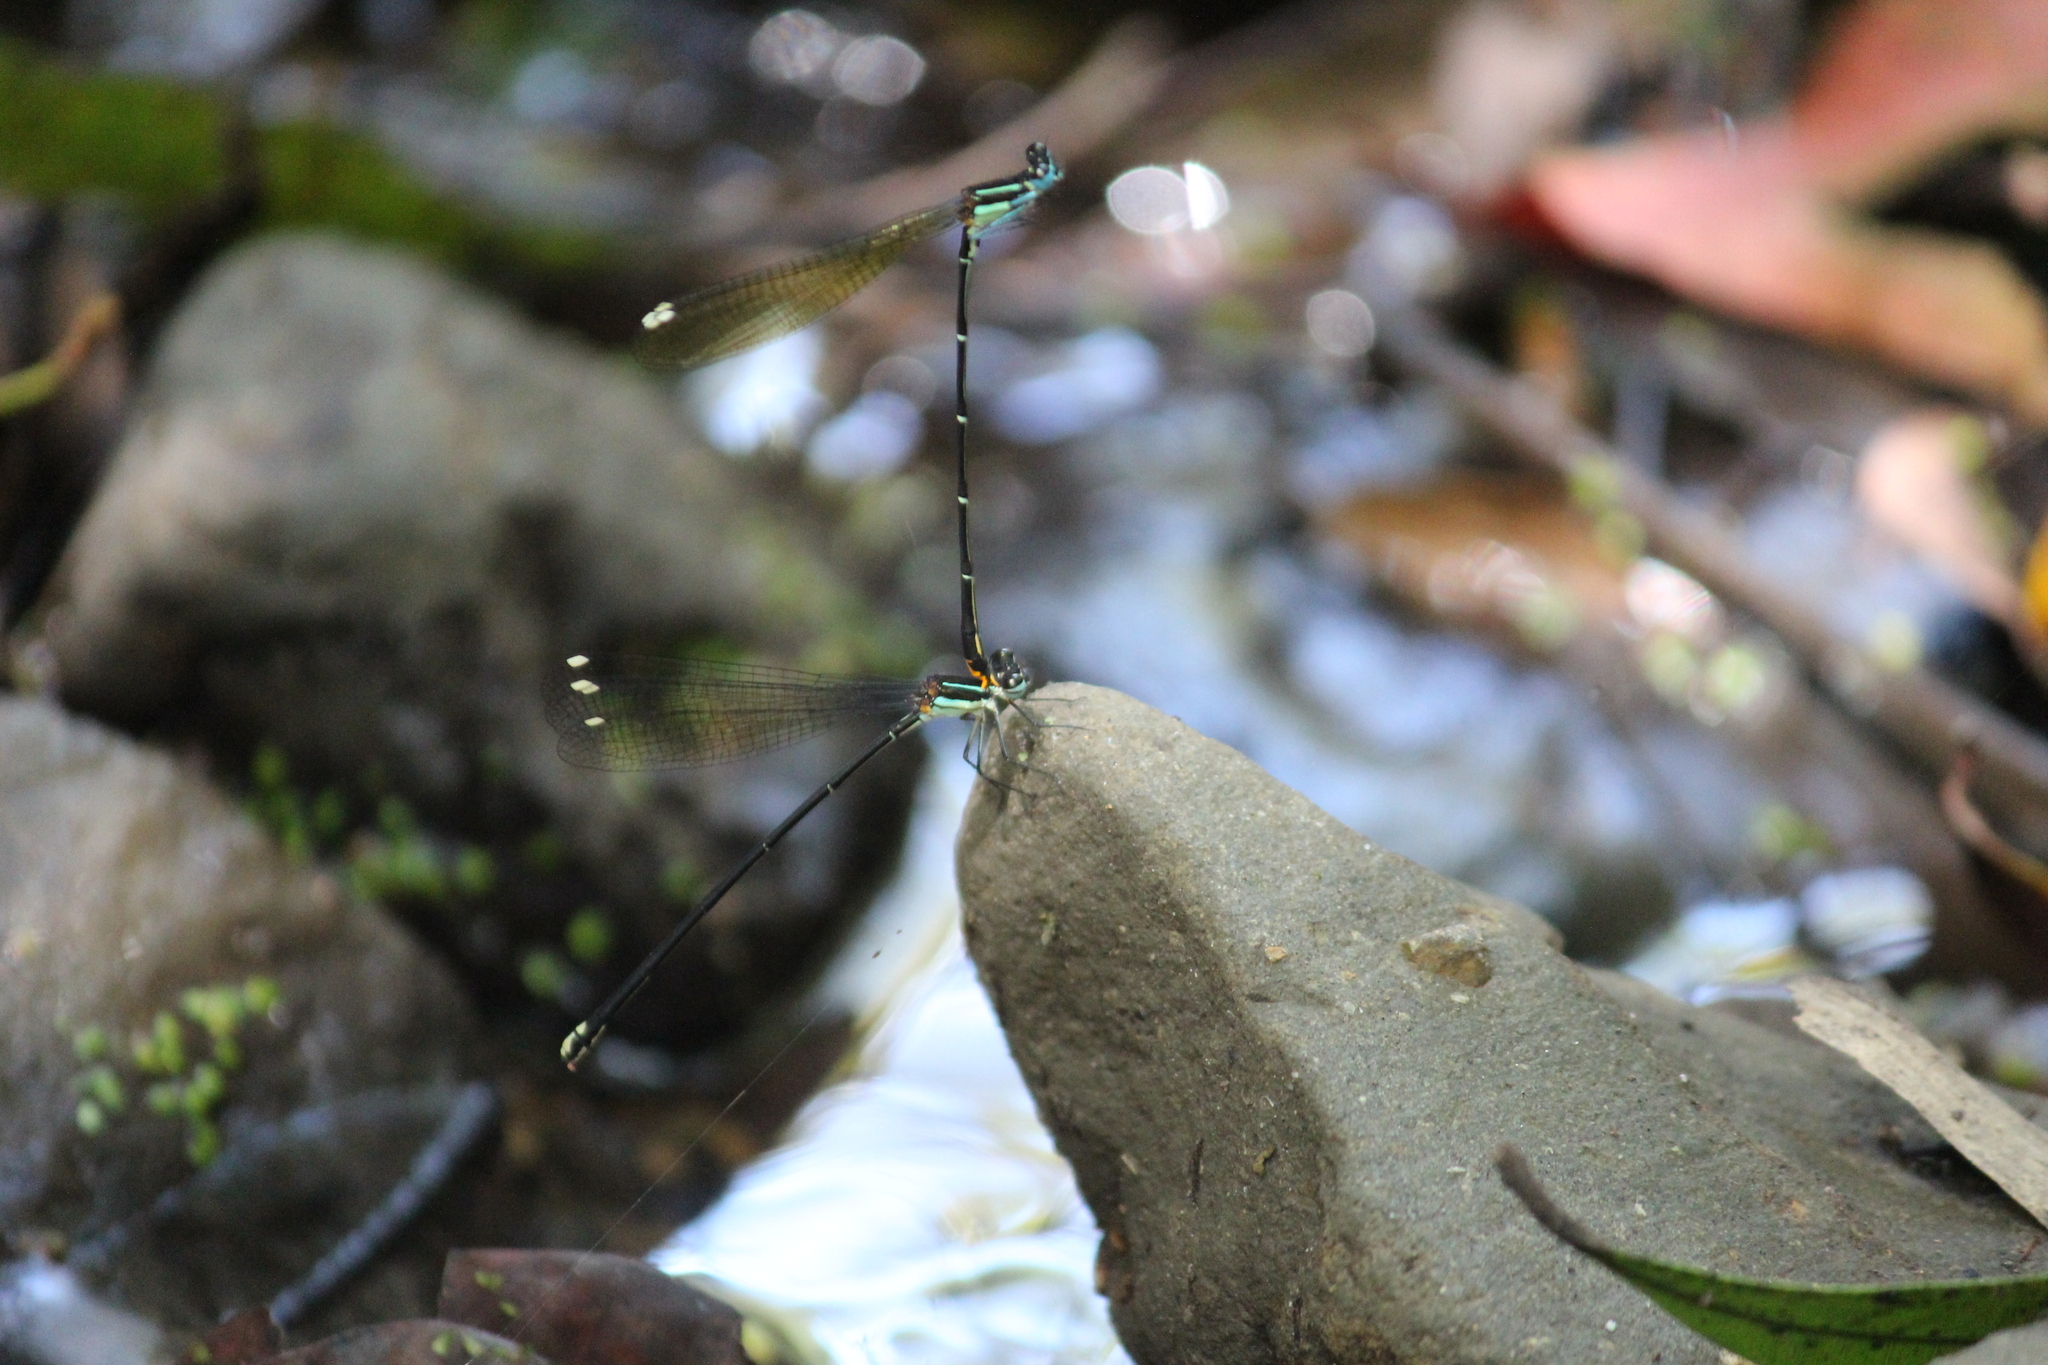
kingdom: Animalia
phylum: Arthropoda
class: Insecta
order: Odonata
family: Platycnemididae
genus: Allocnemis
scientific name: Allocnemis leucosticta
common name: Goldtail
